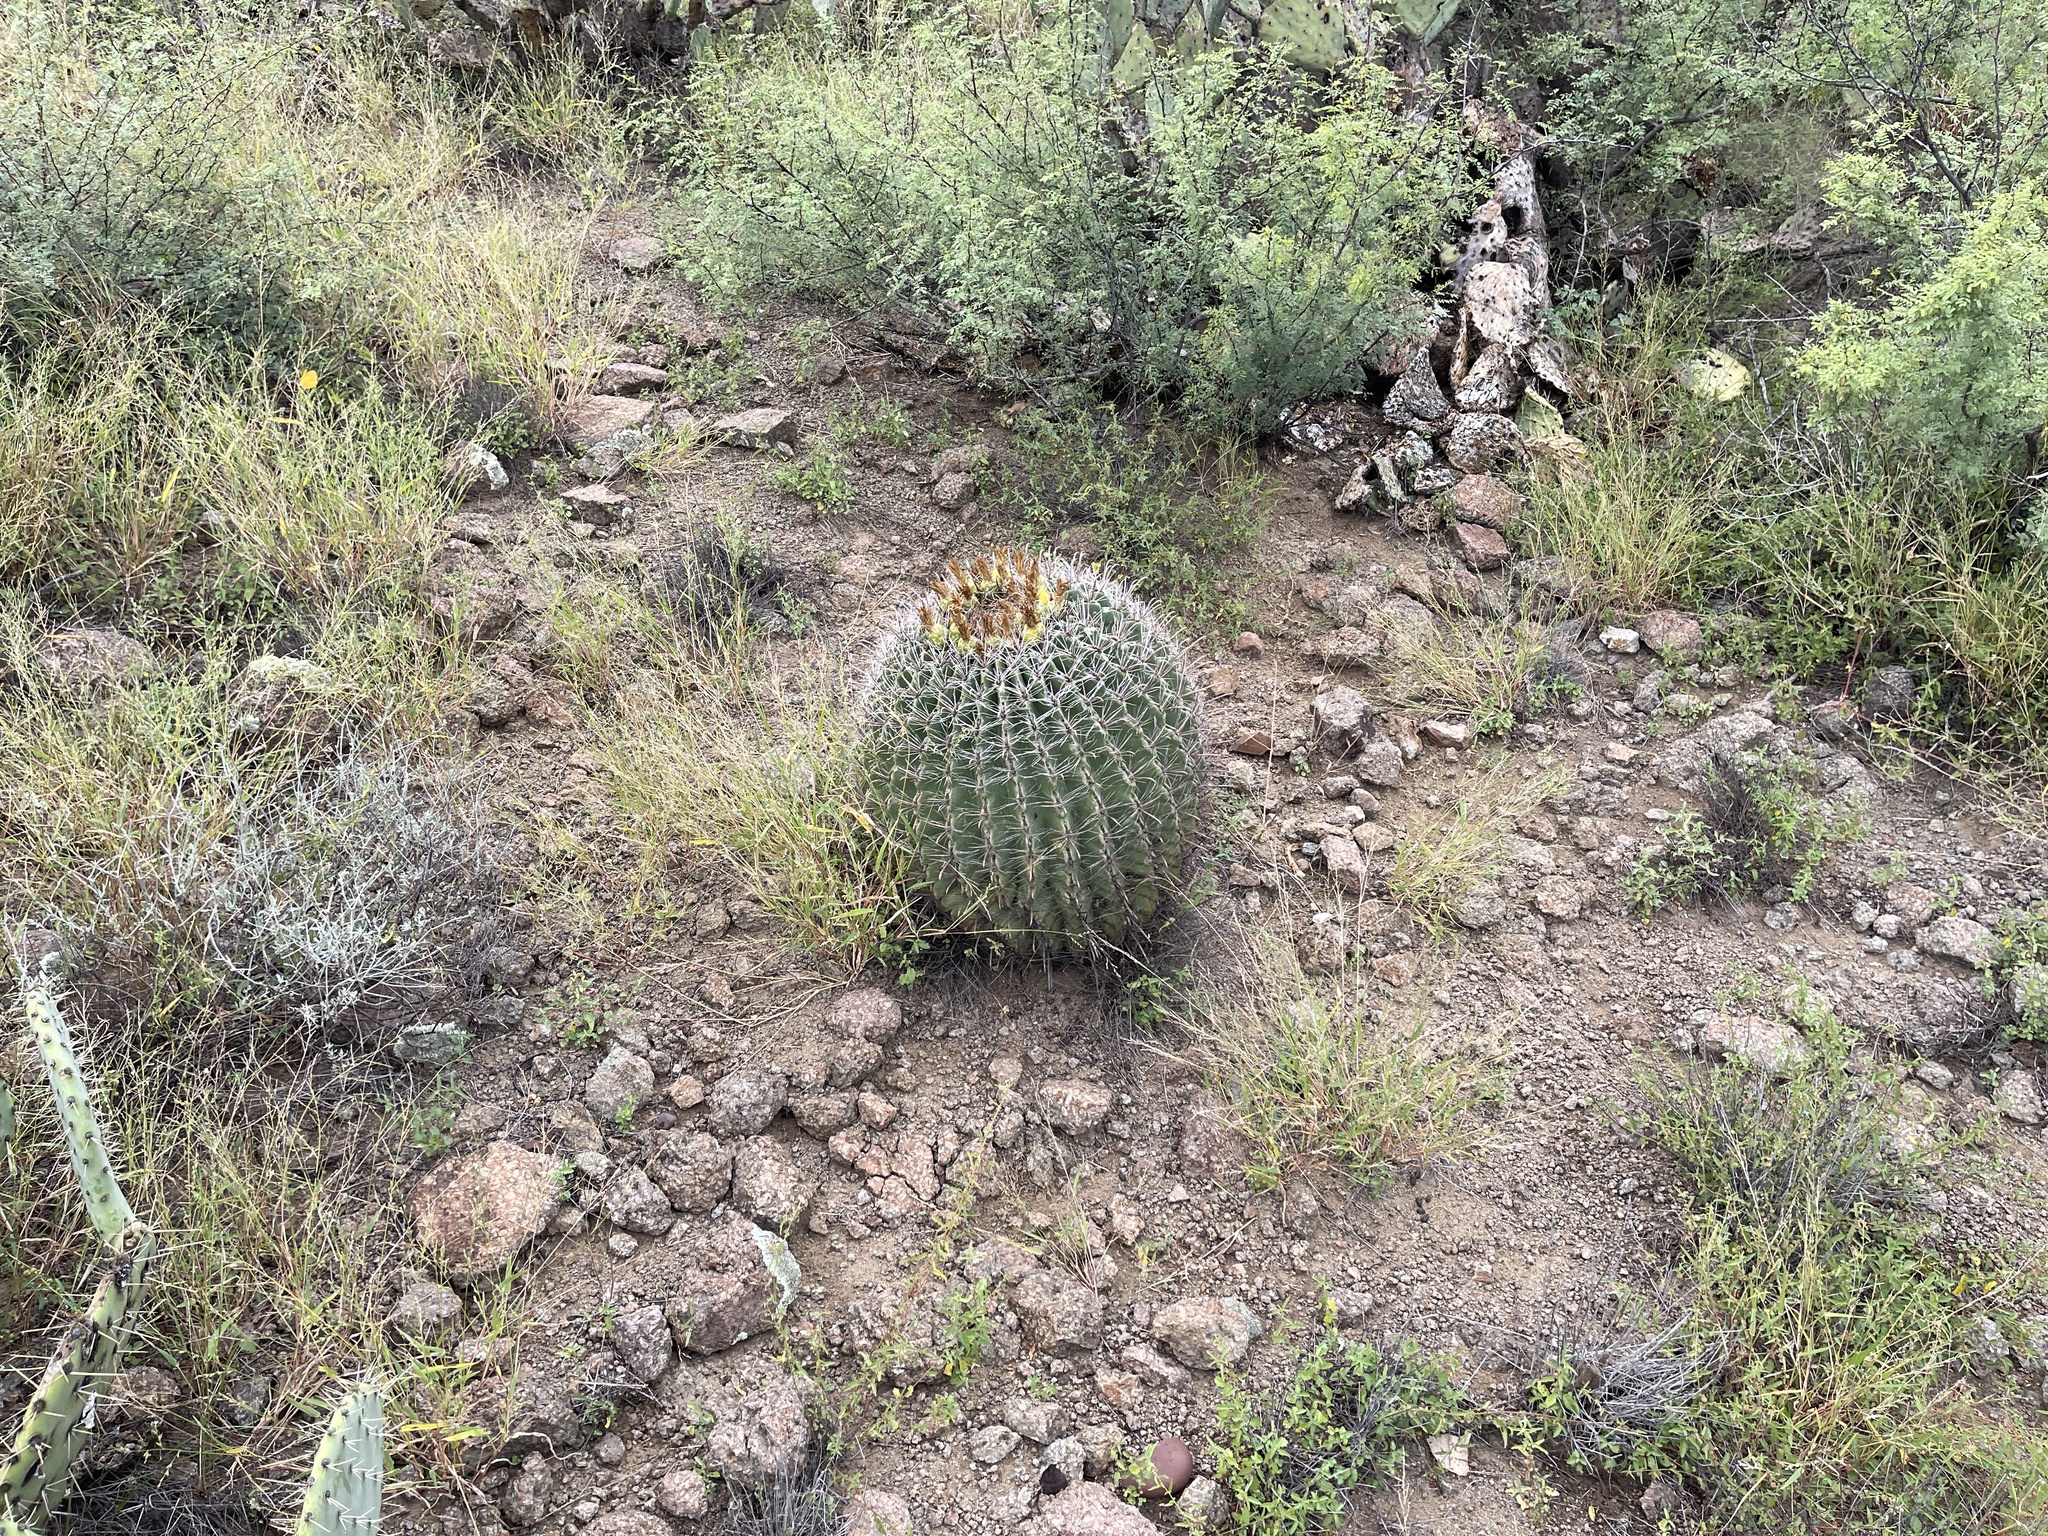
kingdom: Plantae
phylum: Tracheophyta
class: Magnoliopsida
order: Caryophyllales
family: Cactaceae
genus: Ferocactus
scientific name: Ferocactus wislizeni
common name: Candy barrel cactus
